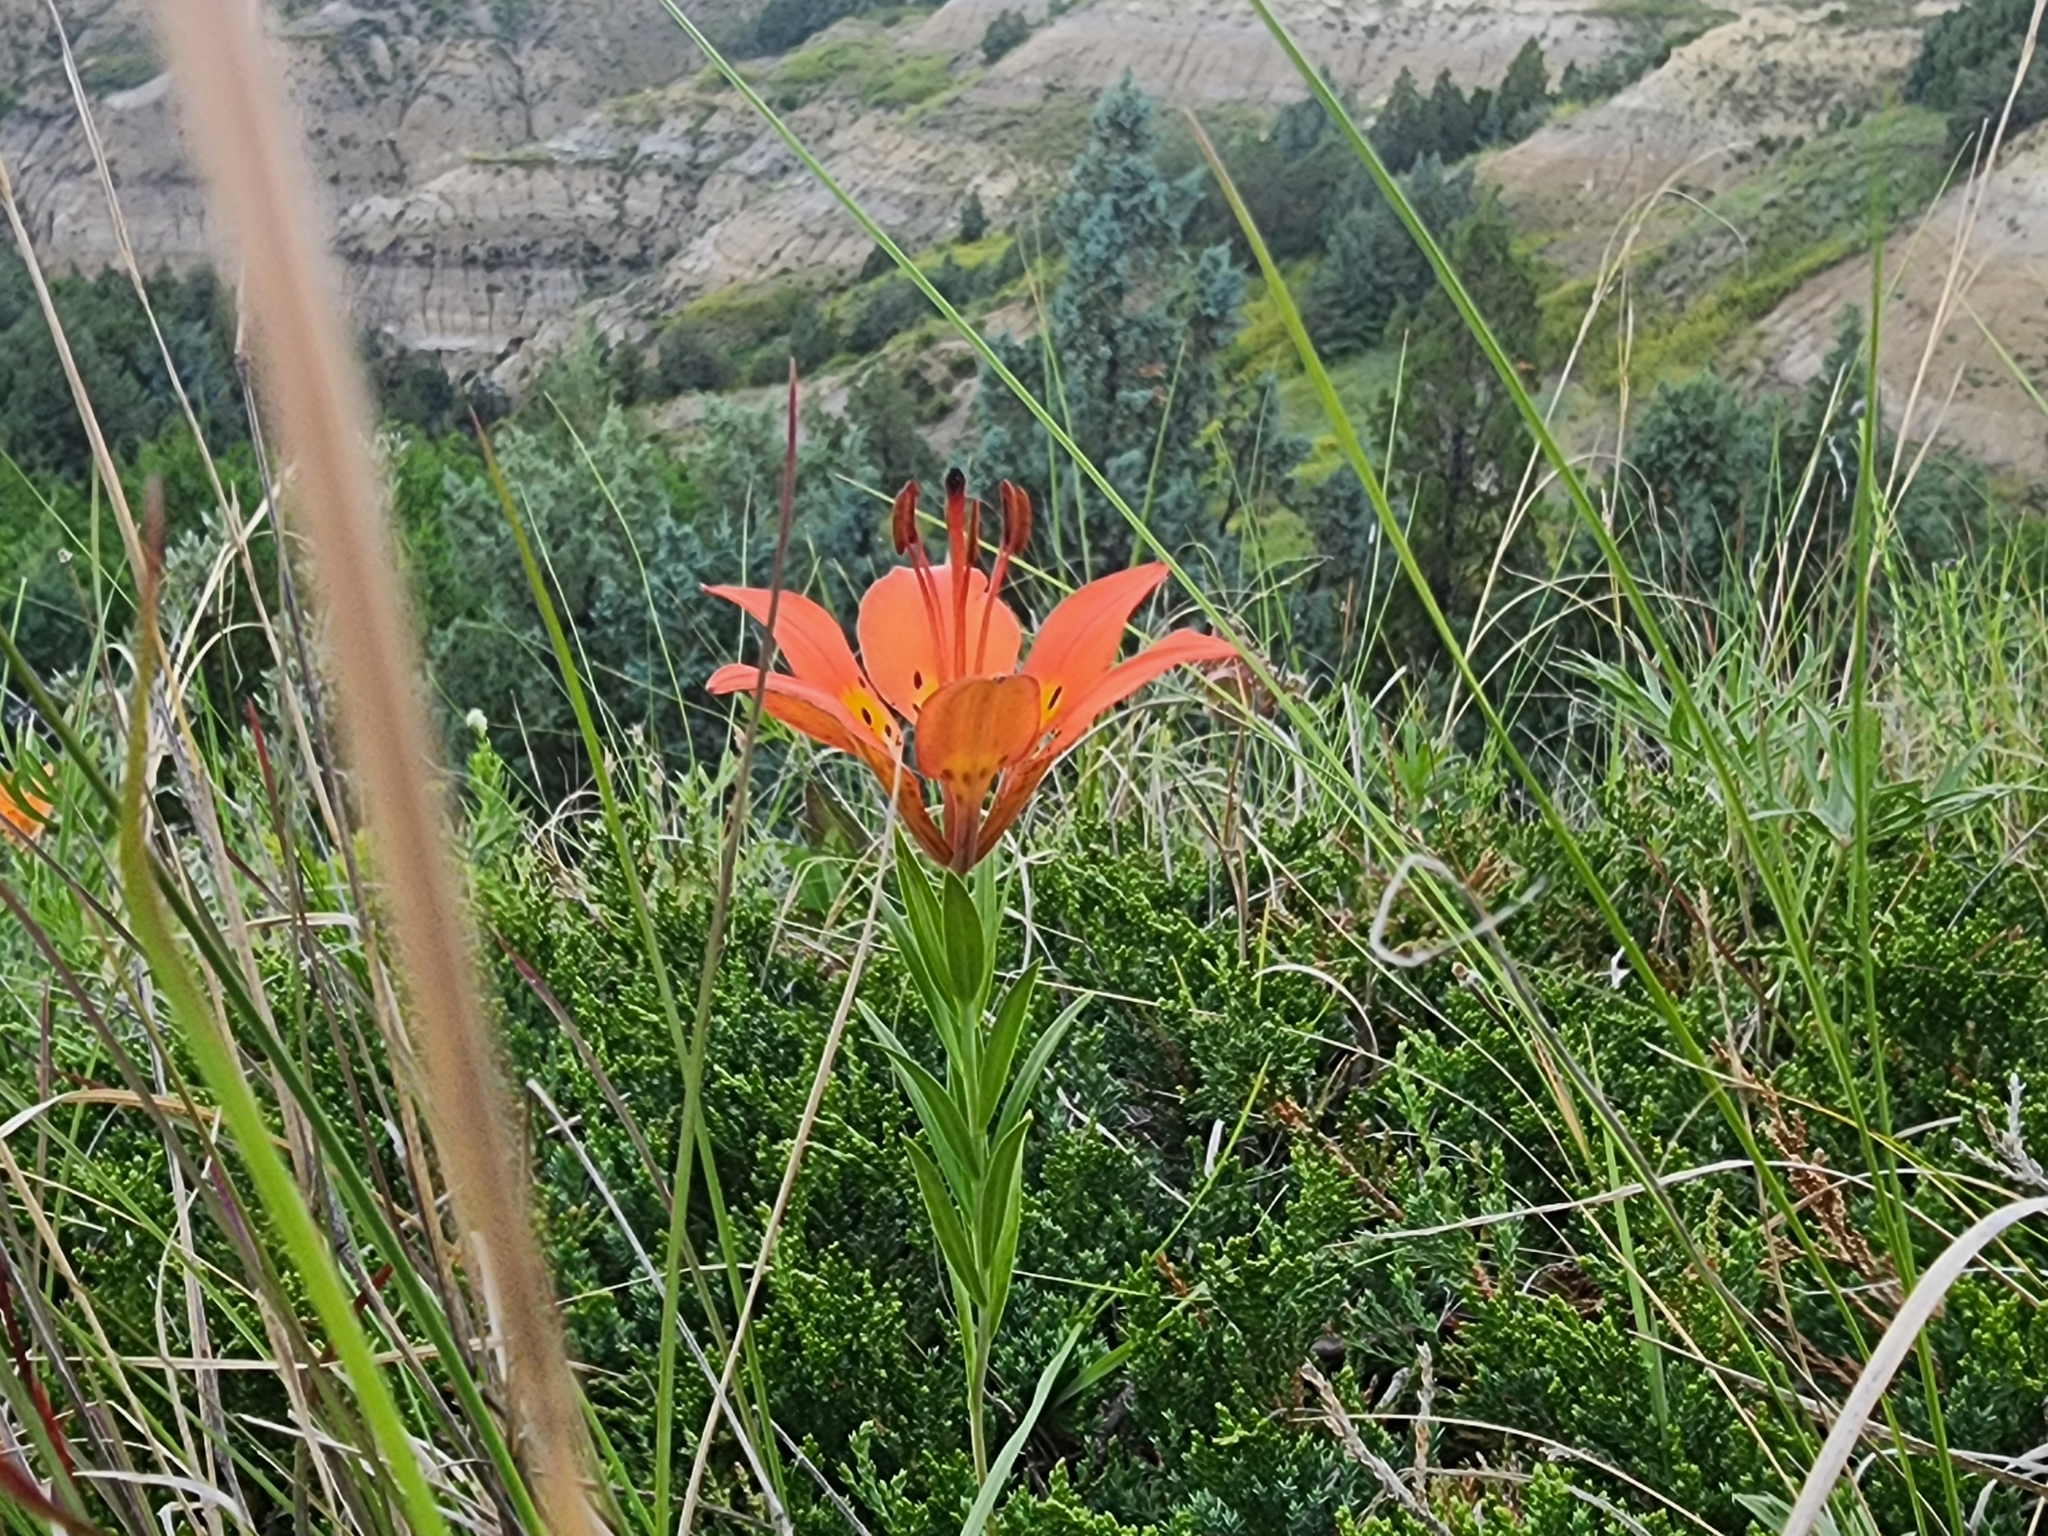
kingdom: Plantae
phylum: Tracheophyta
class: Liliopsida
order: Liliales
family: Liliaceae
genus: Lilium
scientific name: Lilium philadelphicum
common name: Red lily
